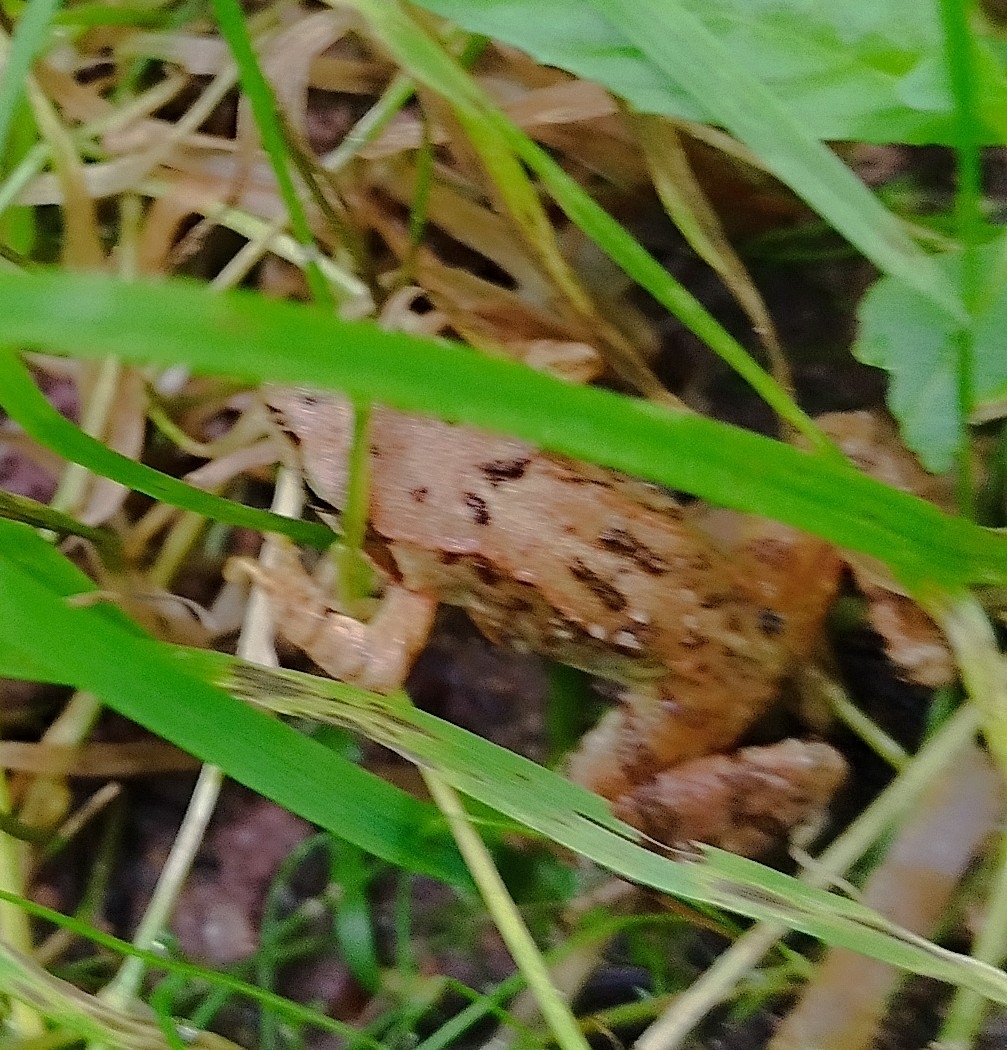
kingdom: Animalia
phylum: Chordata
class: Amphibia
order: Anura
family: Ranidae
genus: Rana
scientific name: Rana temporaria
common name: Common frog
